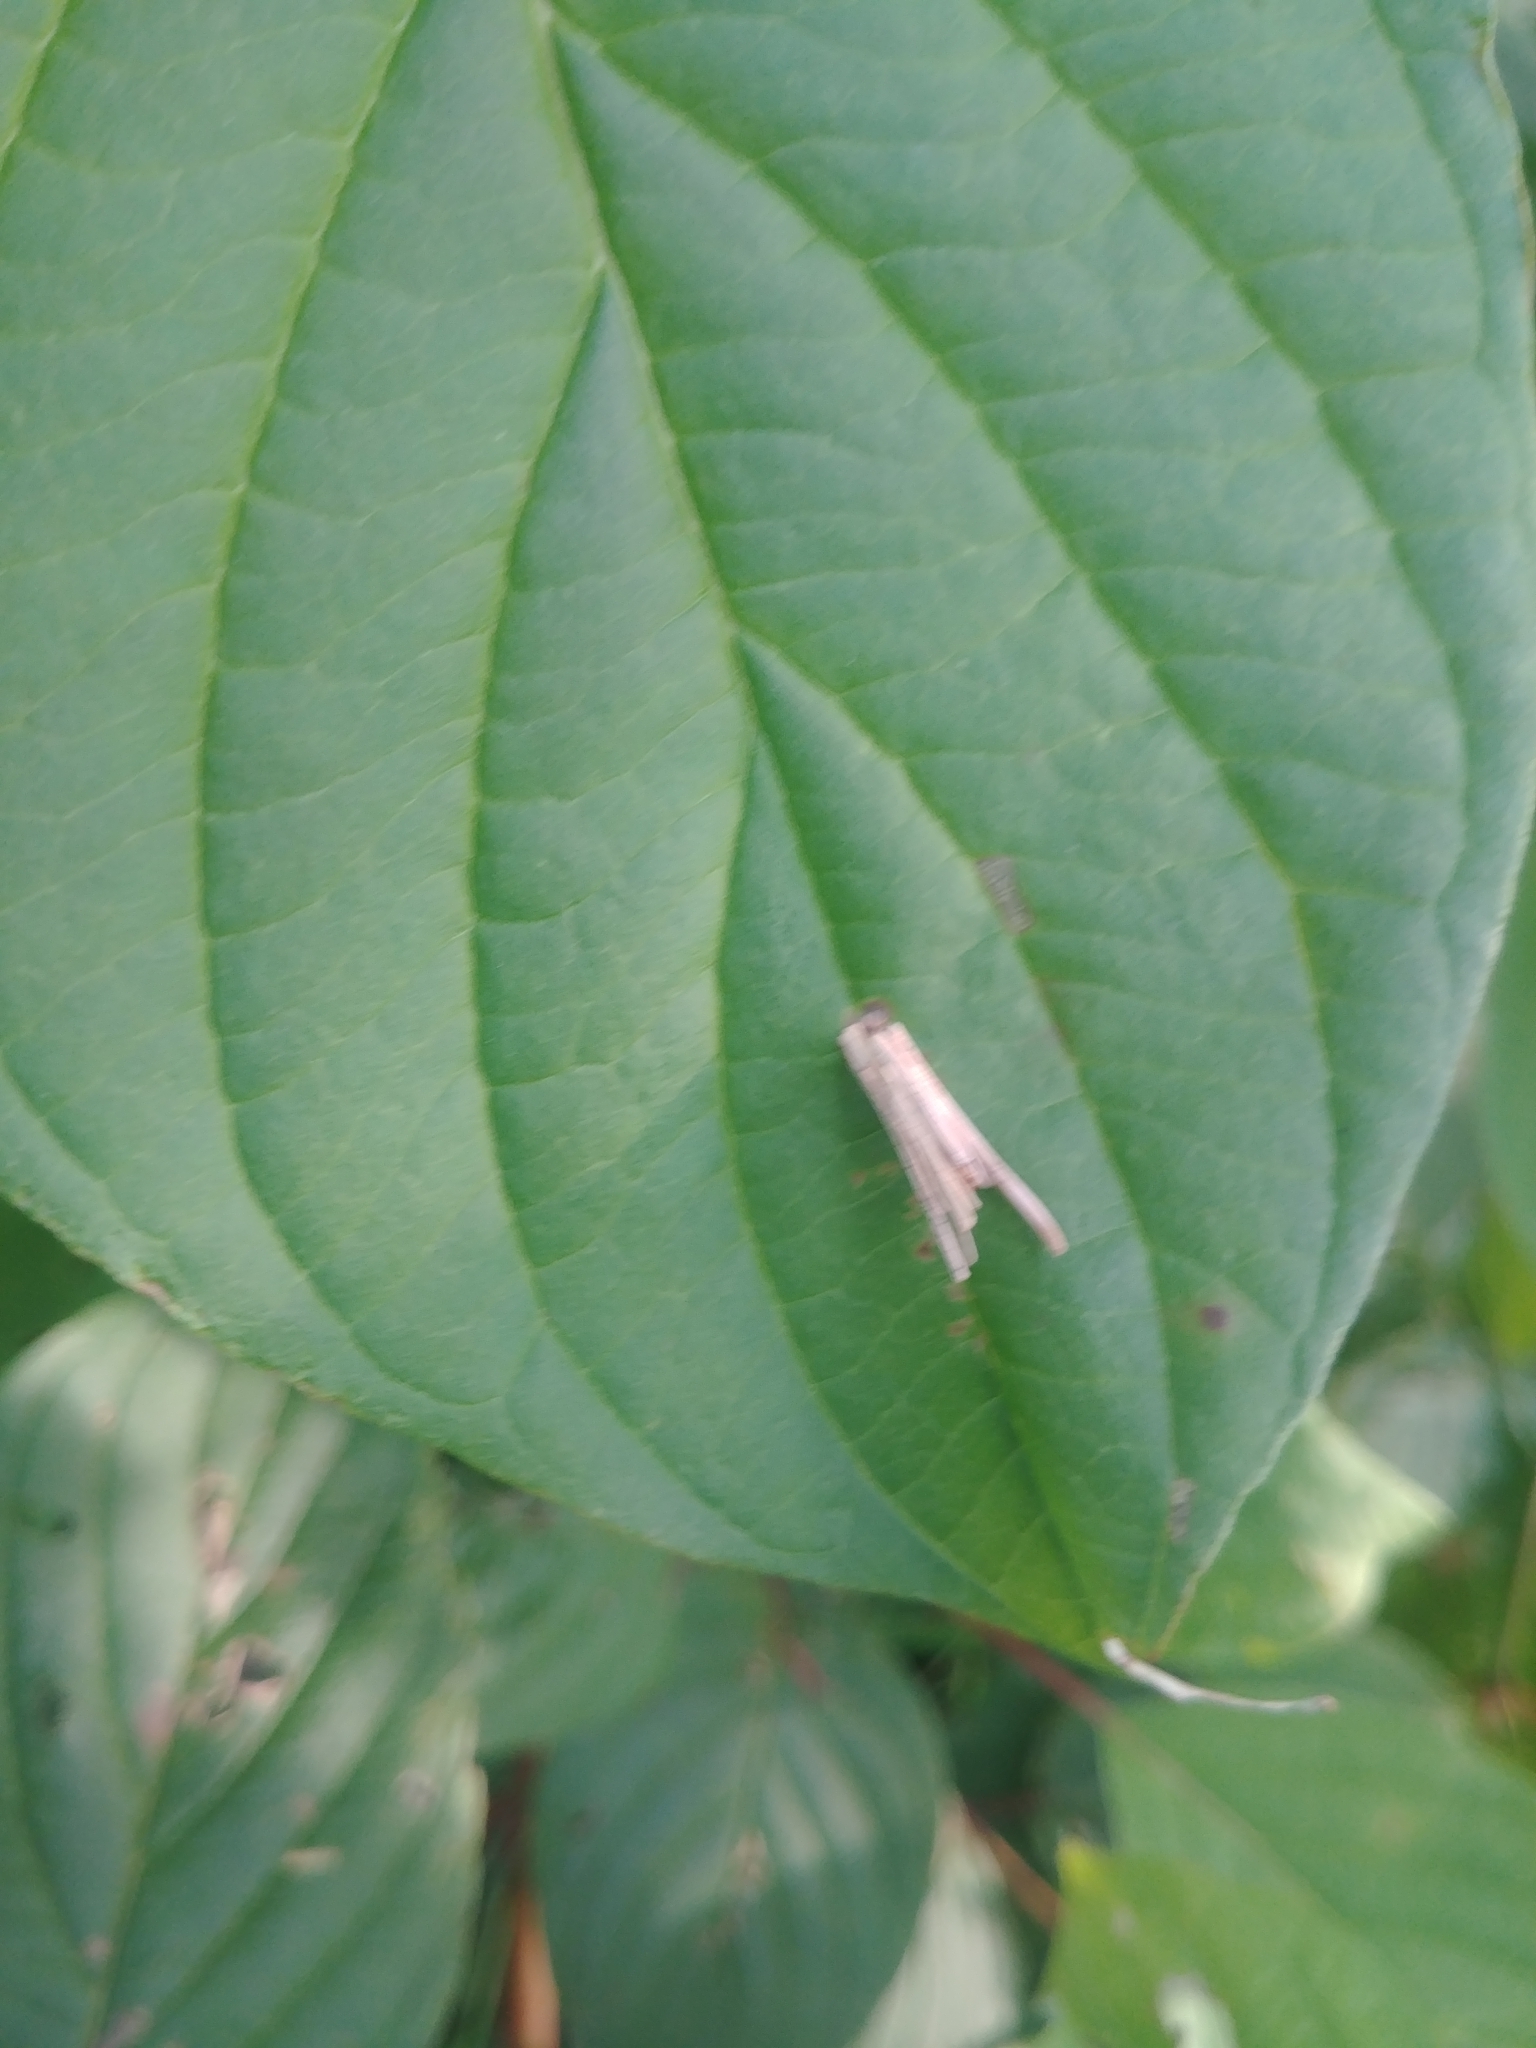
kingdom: Animalia
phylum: Arthropoda
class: Insecta
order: Lepidoptera
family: Psychidae
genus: Psyche
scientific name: Psyche casta
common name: Common sweep
